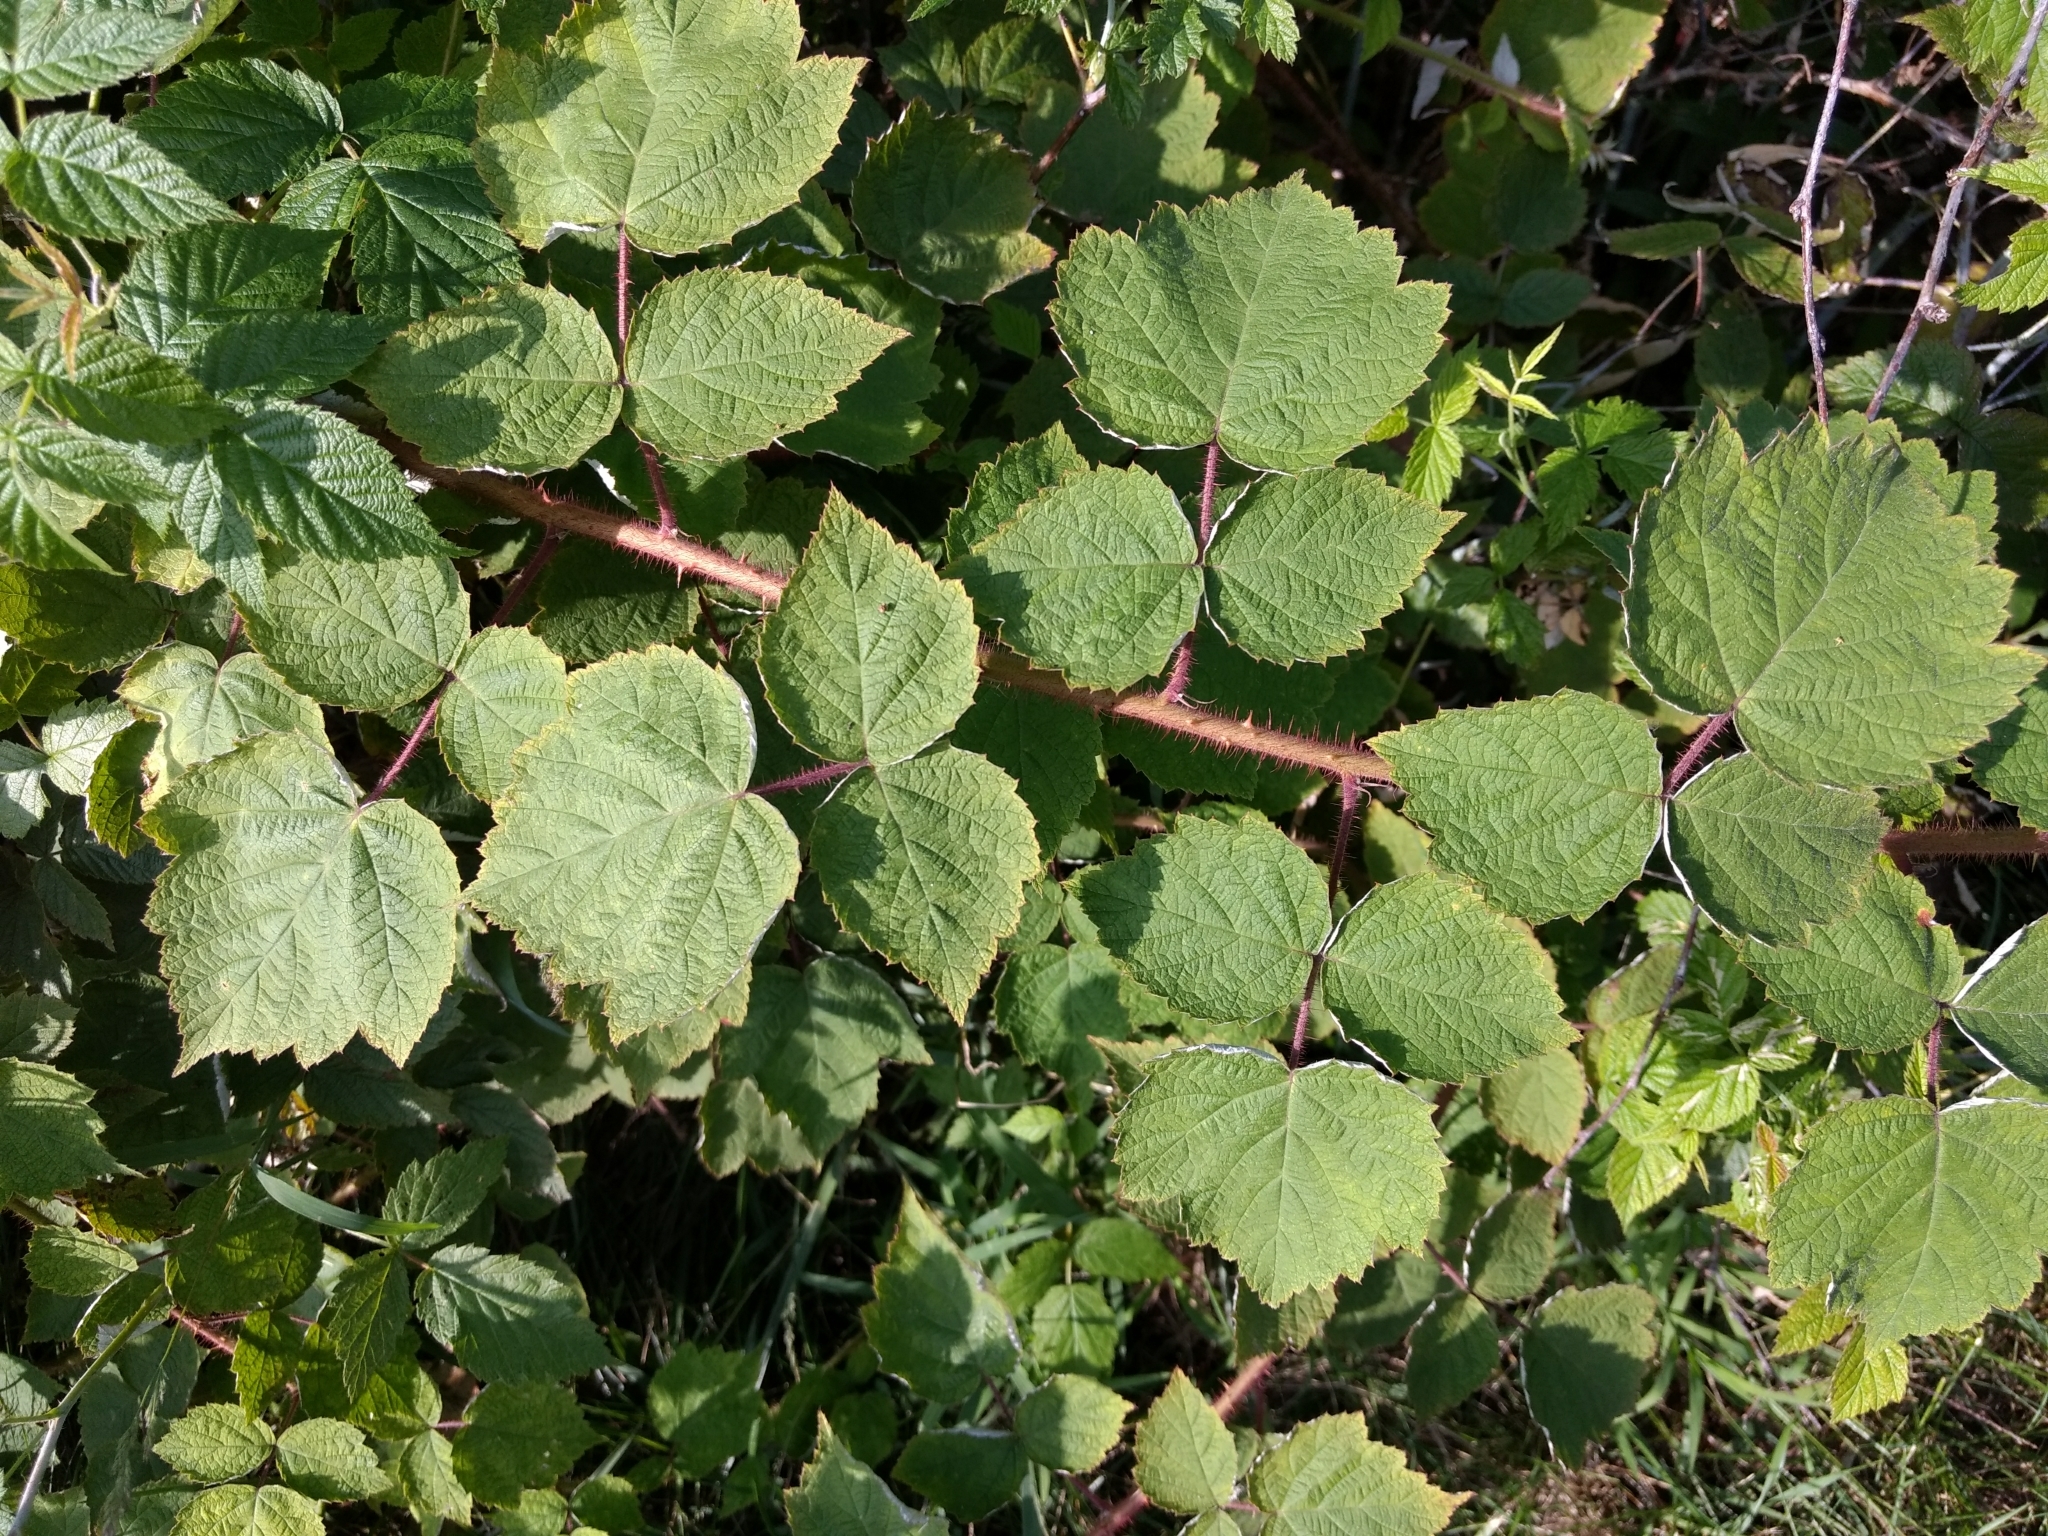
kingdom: Plantae
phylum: Tracheophyta
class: Magnoliopsida
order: Rosales
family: Rosaceae
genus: Rubus
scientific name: Rubus phoenicolasius
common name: Japanese wineberry
